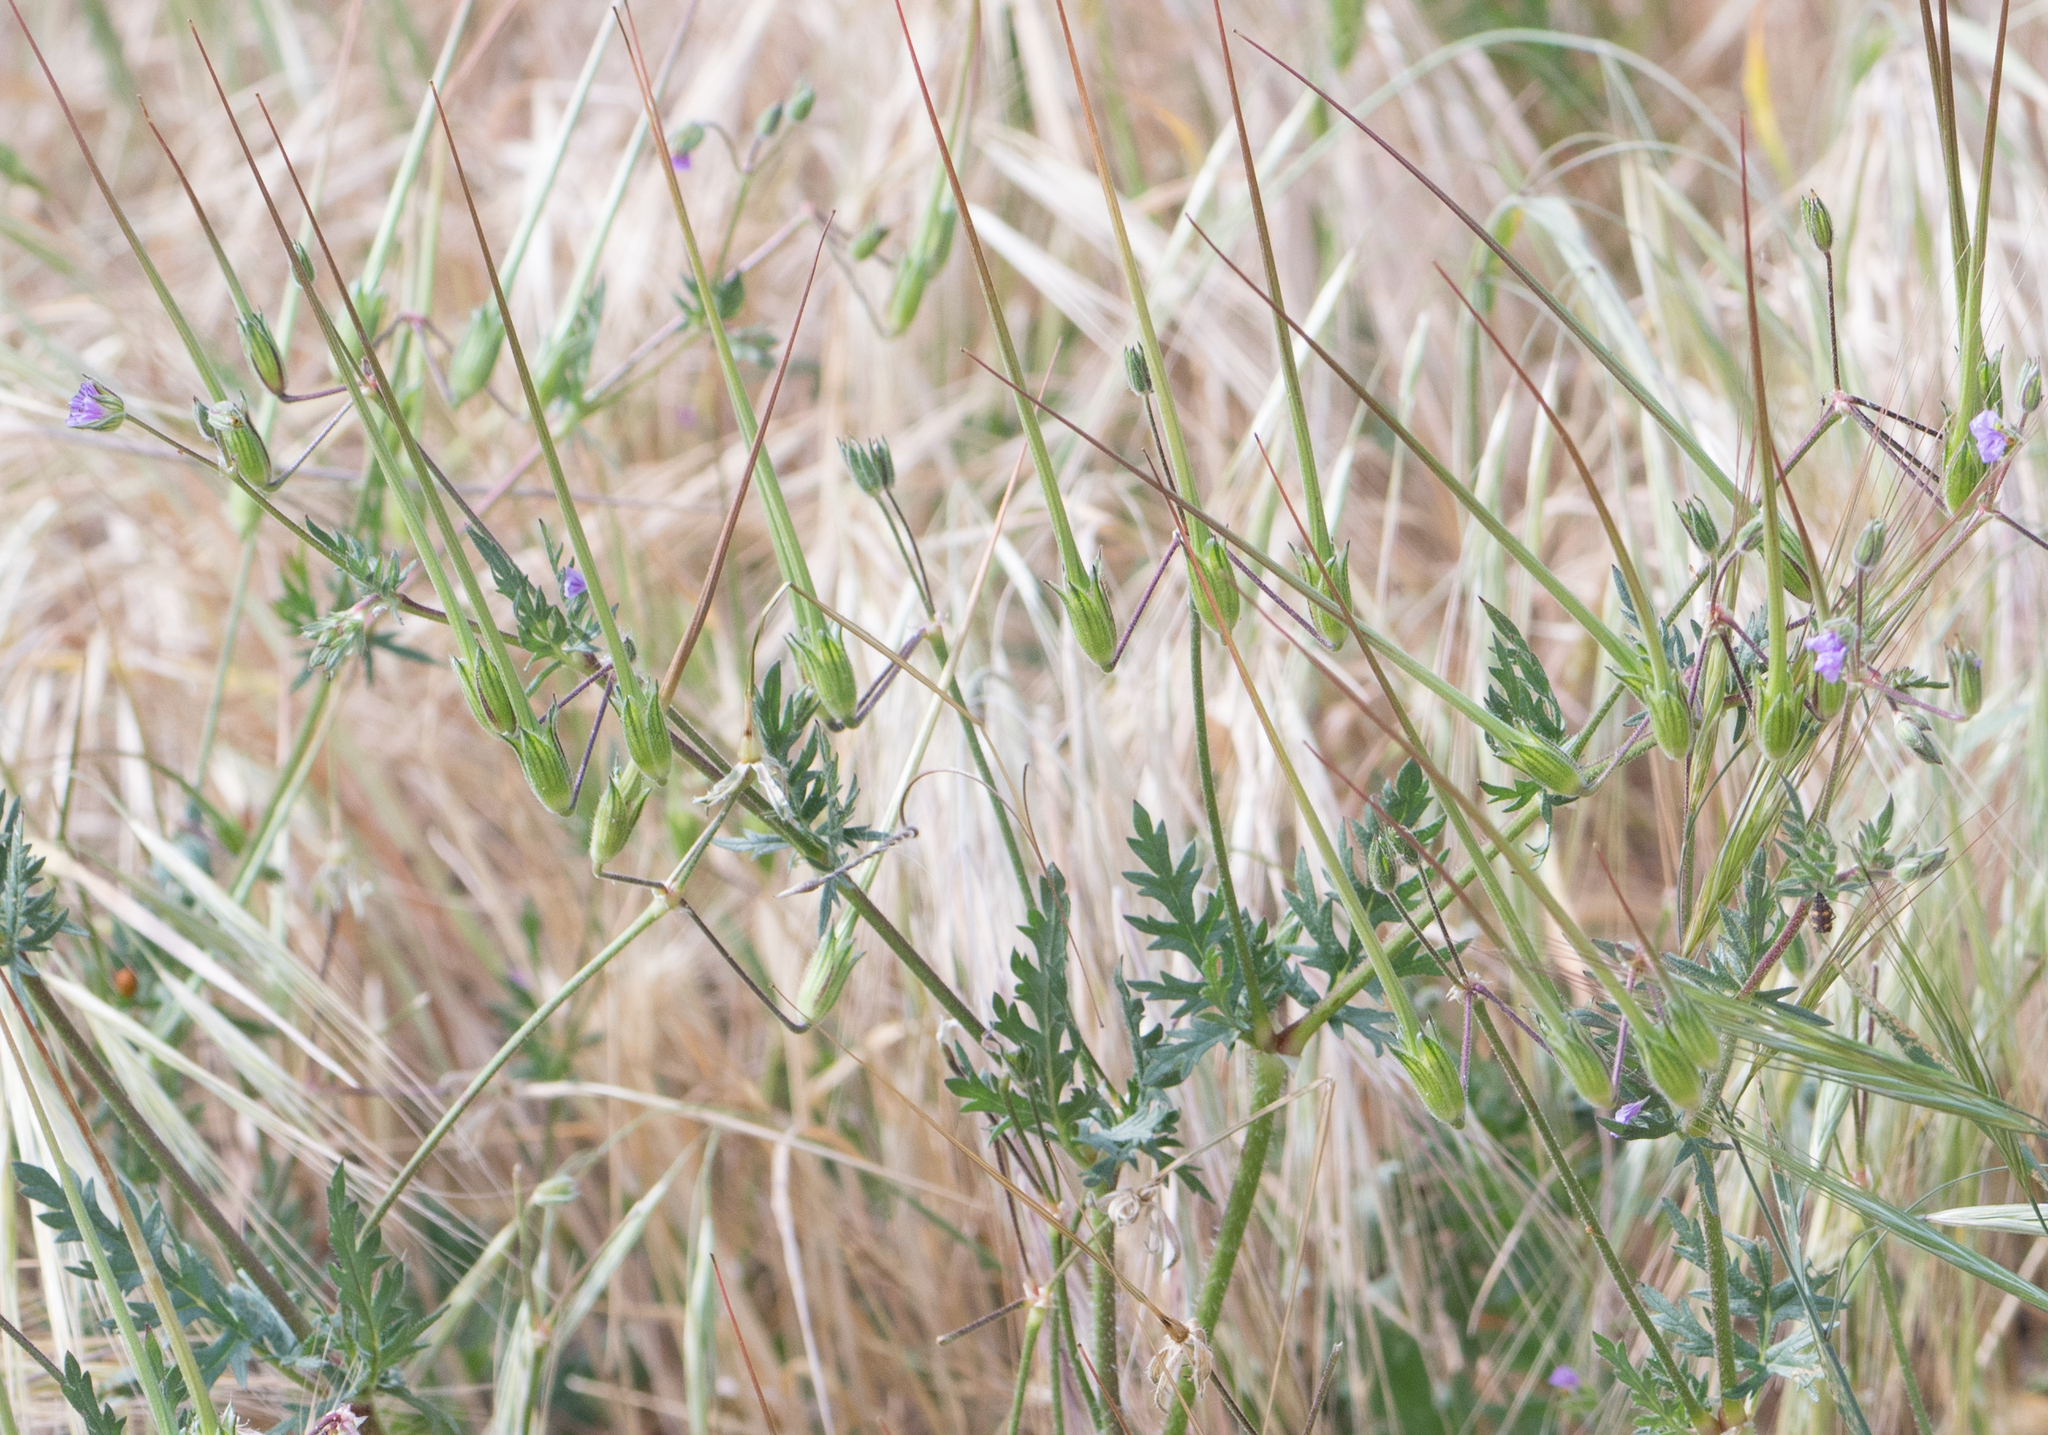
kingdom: Plantae
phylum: Tracheophyta
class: Magnoliopsida
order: Geraniales
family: Geraniaceae
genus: Erodium
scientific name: Erodium botrys
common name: Mediterranean stork's-bill
